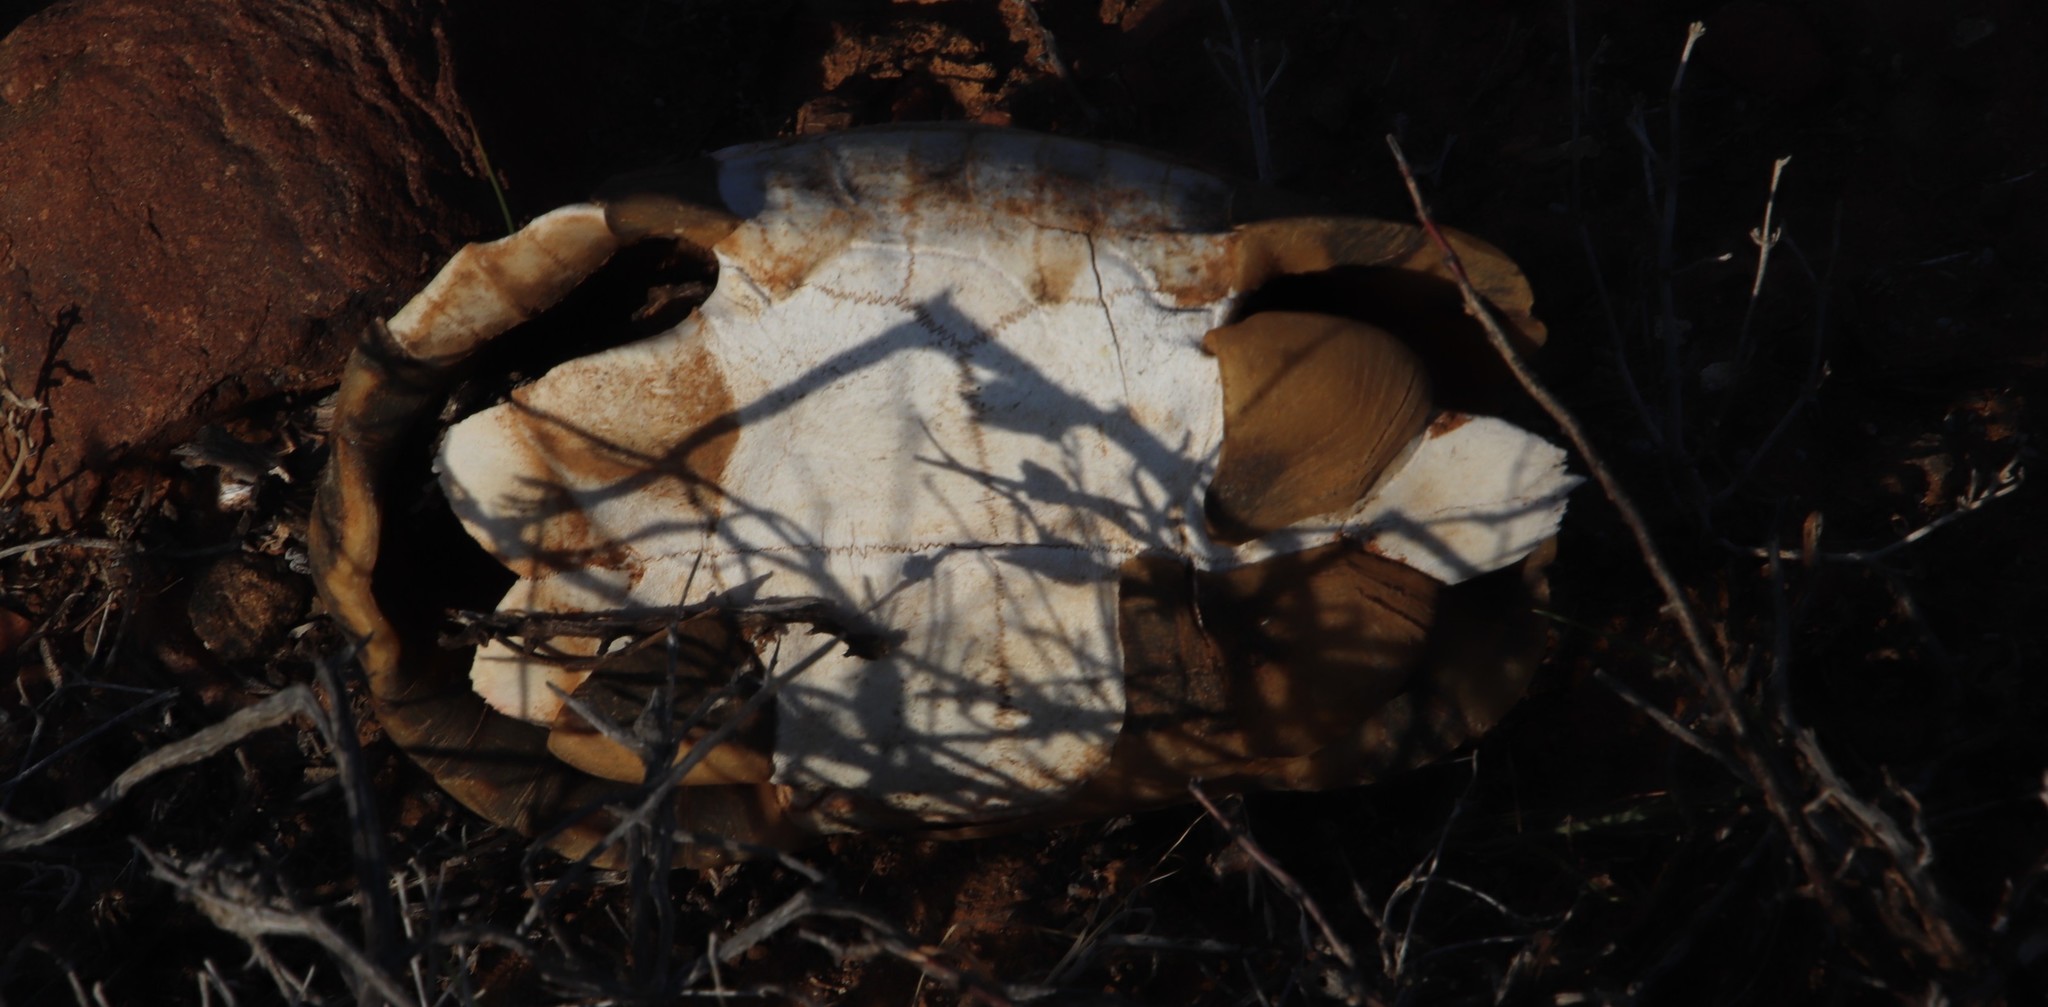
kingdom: Animalia
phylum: Chordata
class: Testudines
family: Testudinidae
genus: Chersina
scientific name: Chersina angulata
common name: South african bowsprit tortoise
